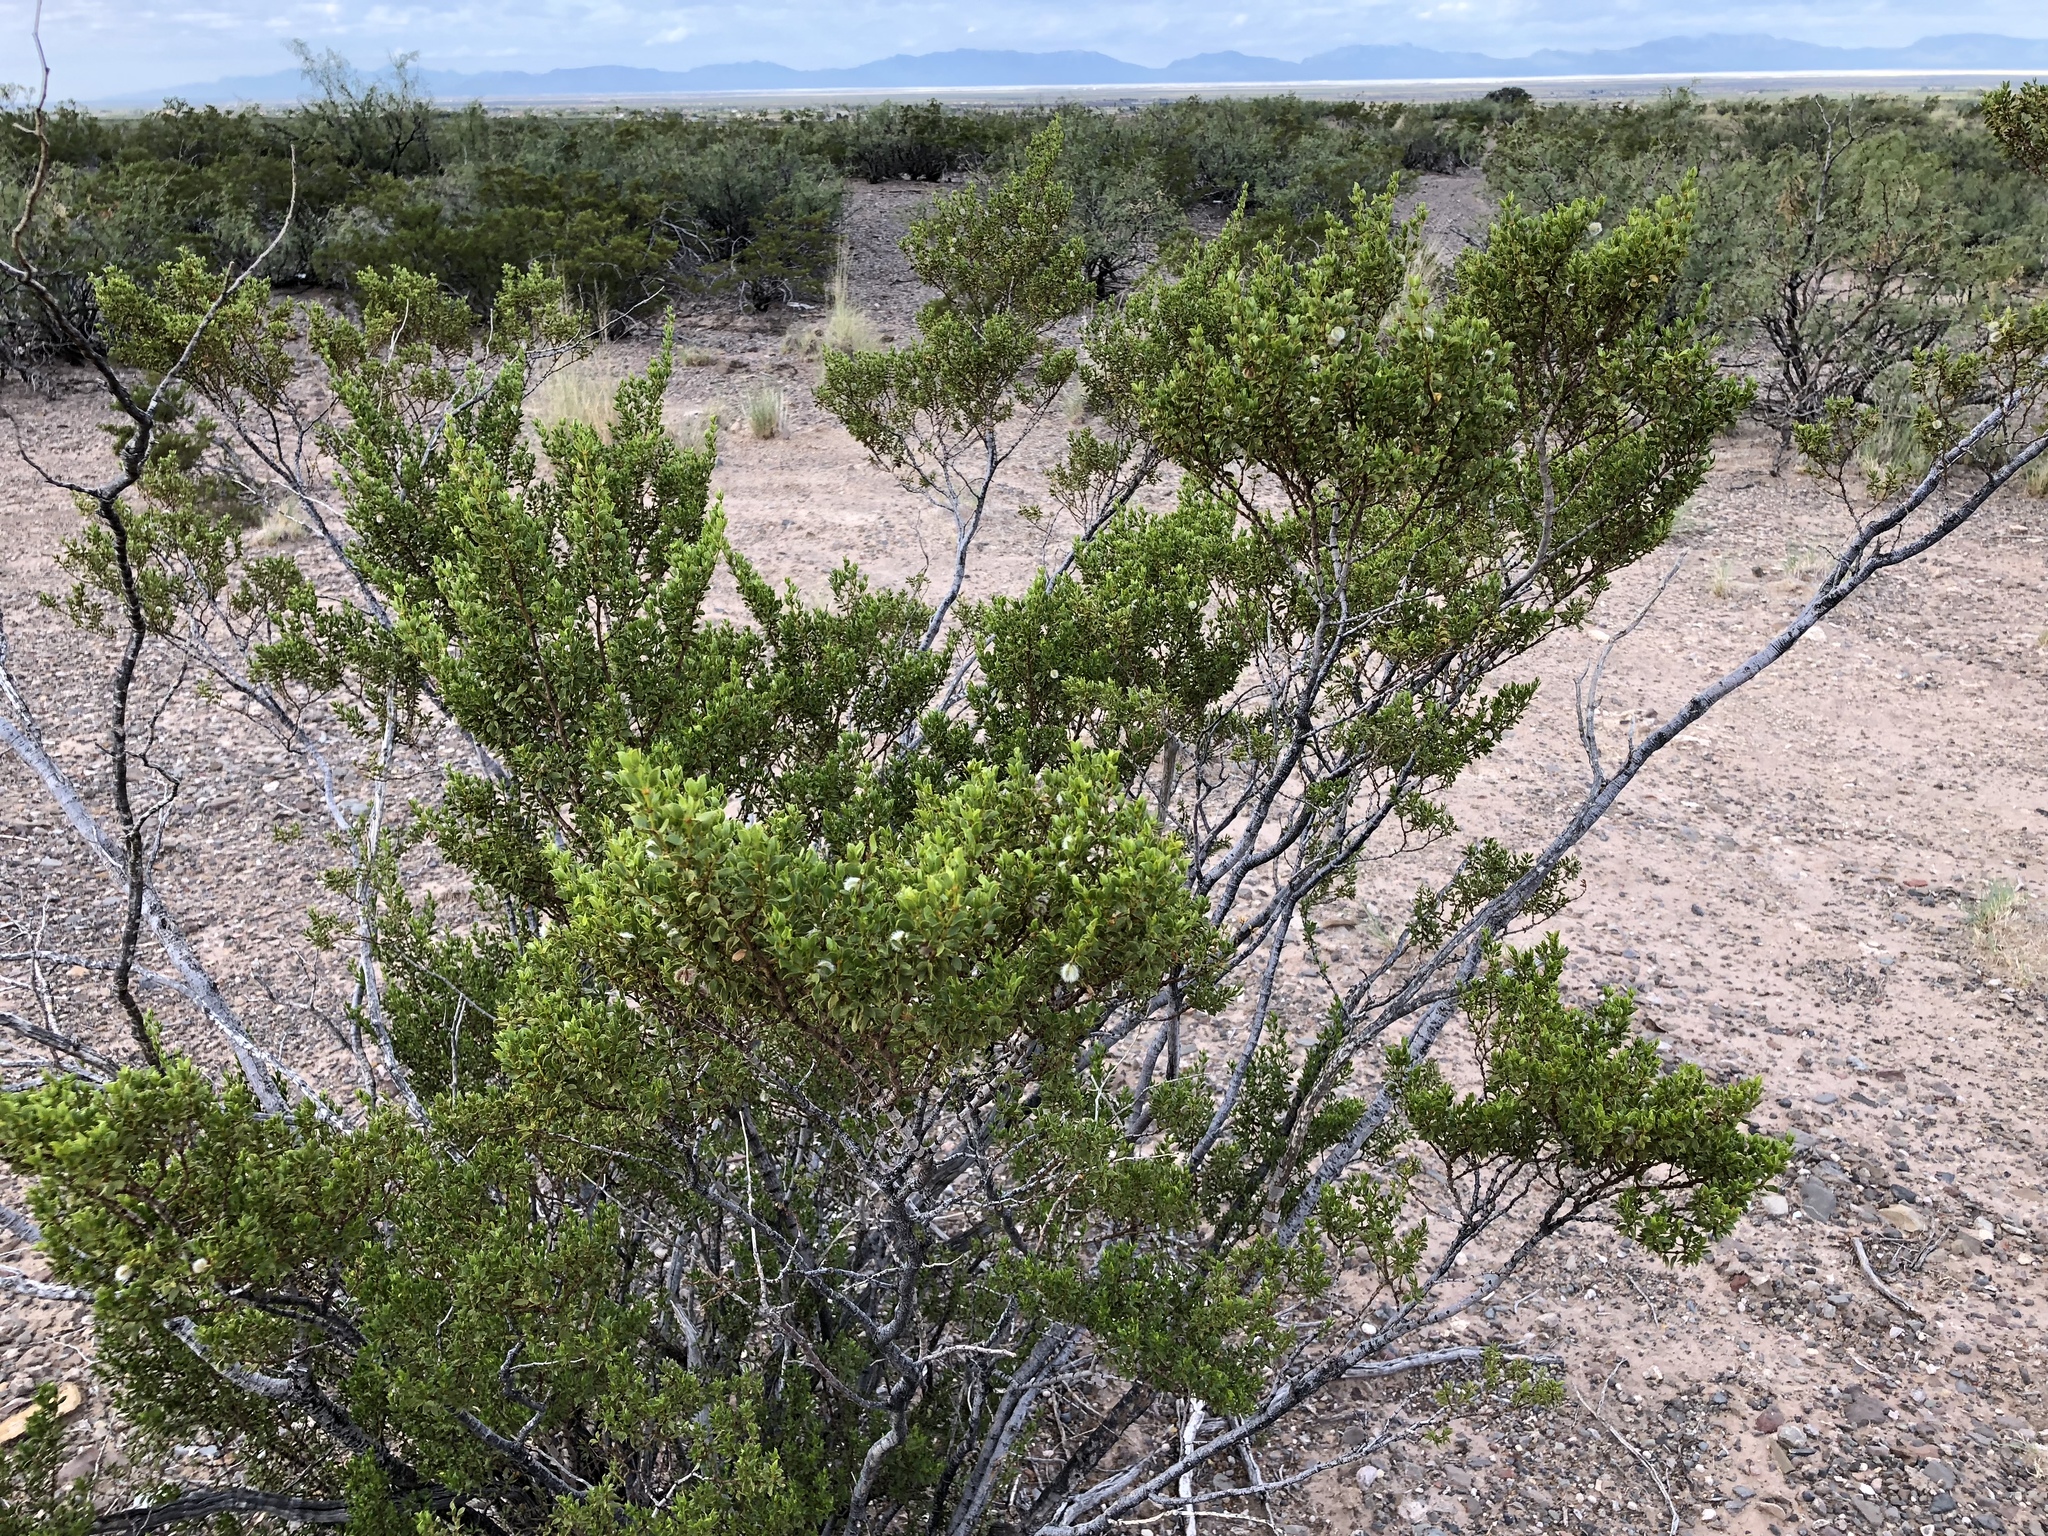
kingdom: Plantae
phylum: Tracheophyta
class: Magnoliopsida
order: Zygophyllales
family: Zygophyllaceae
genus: Larrea
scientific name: Larrea tridentata
